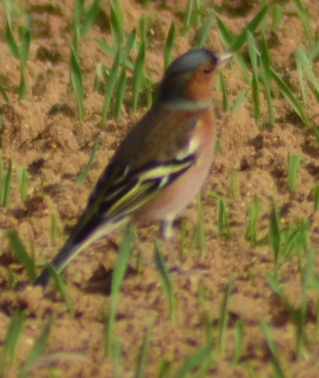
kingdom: Animalia
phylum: Chordata
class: Aves
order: Passeriformes
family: Fringillidae
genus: Fringilla
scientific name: Fringilla coelebs
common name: Common chaffinch
